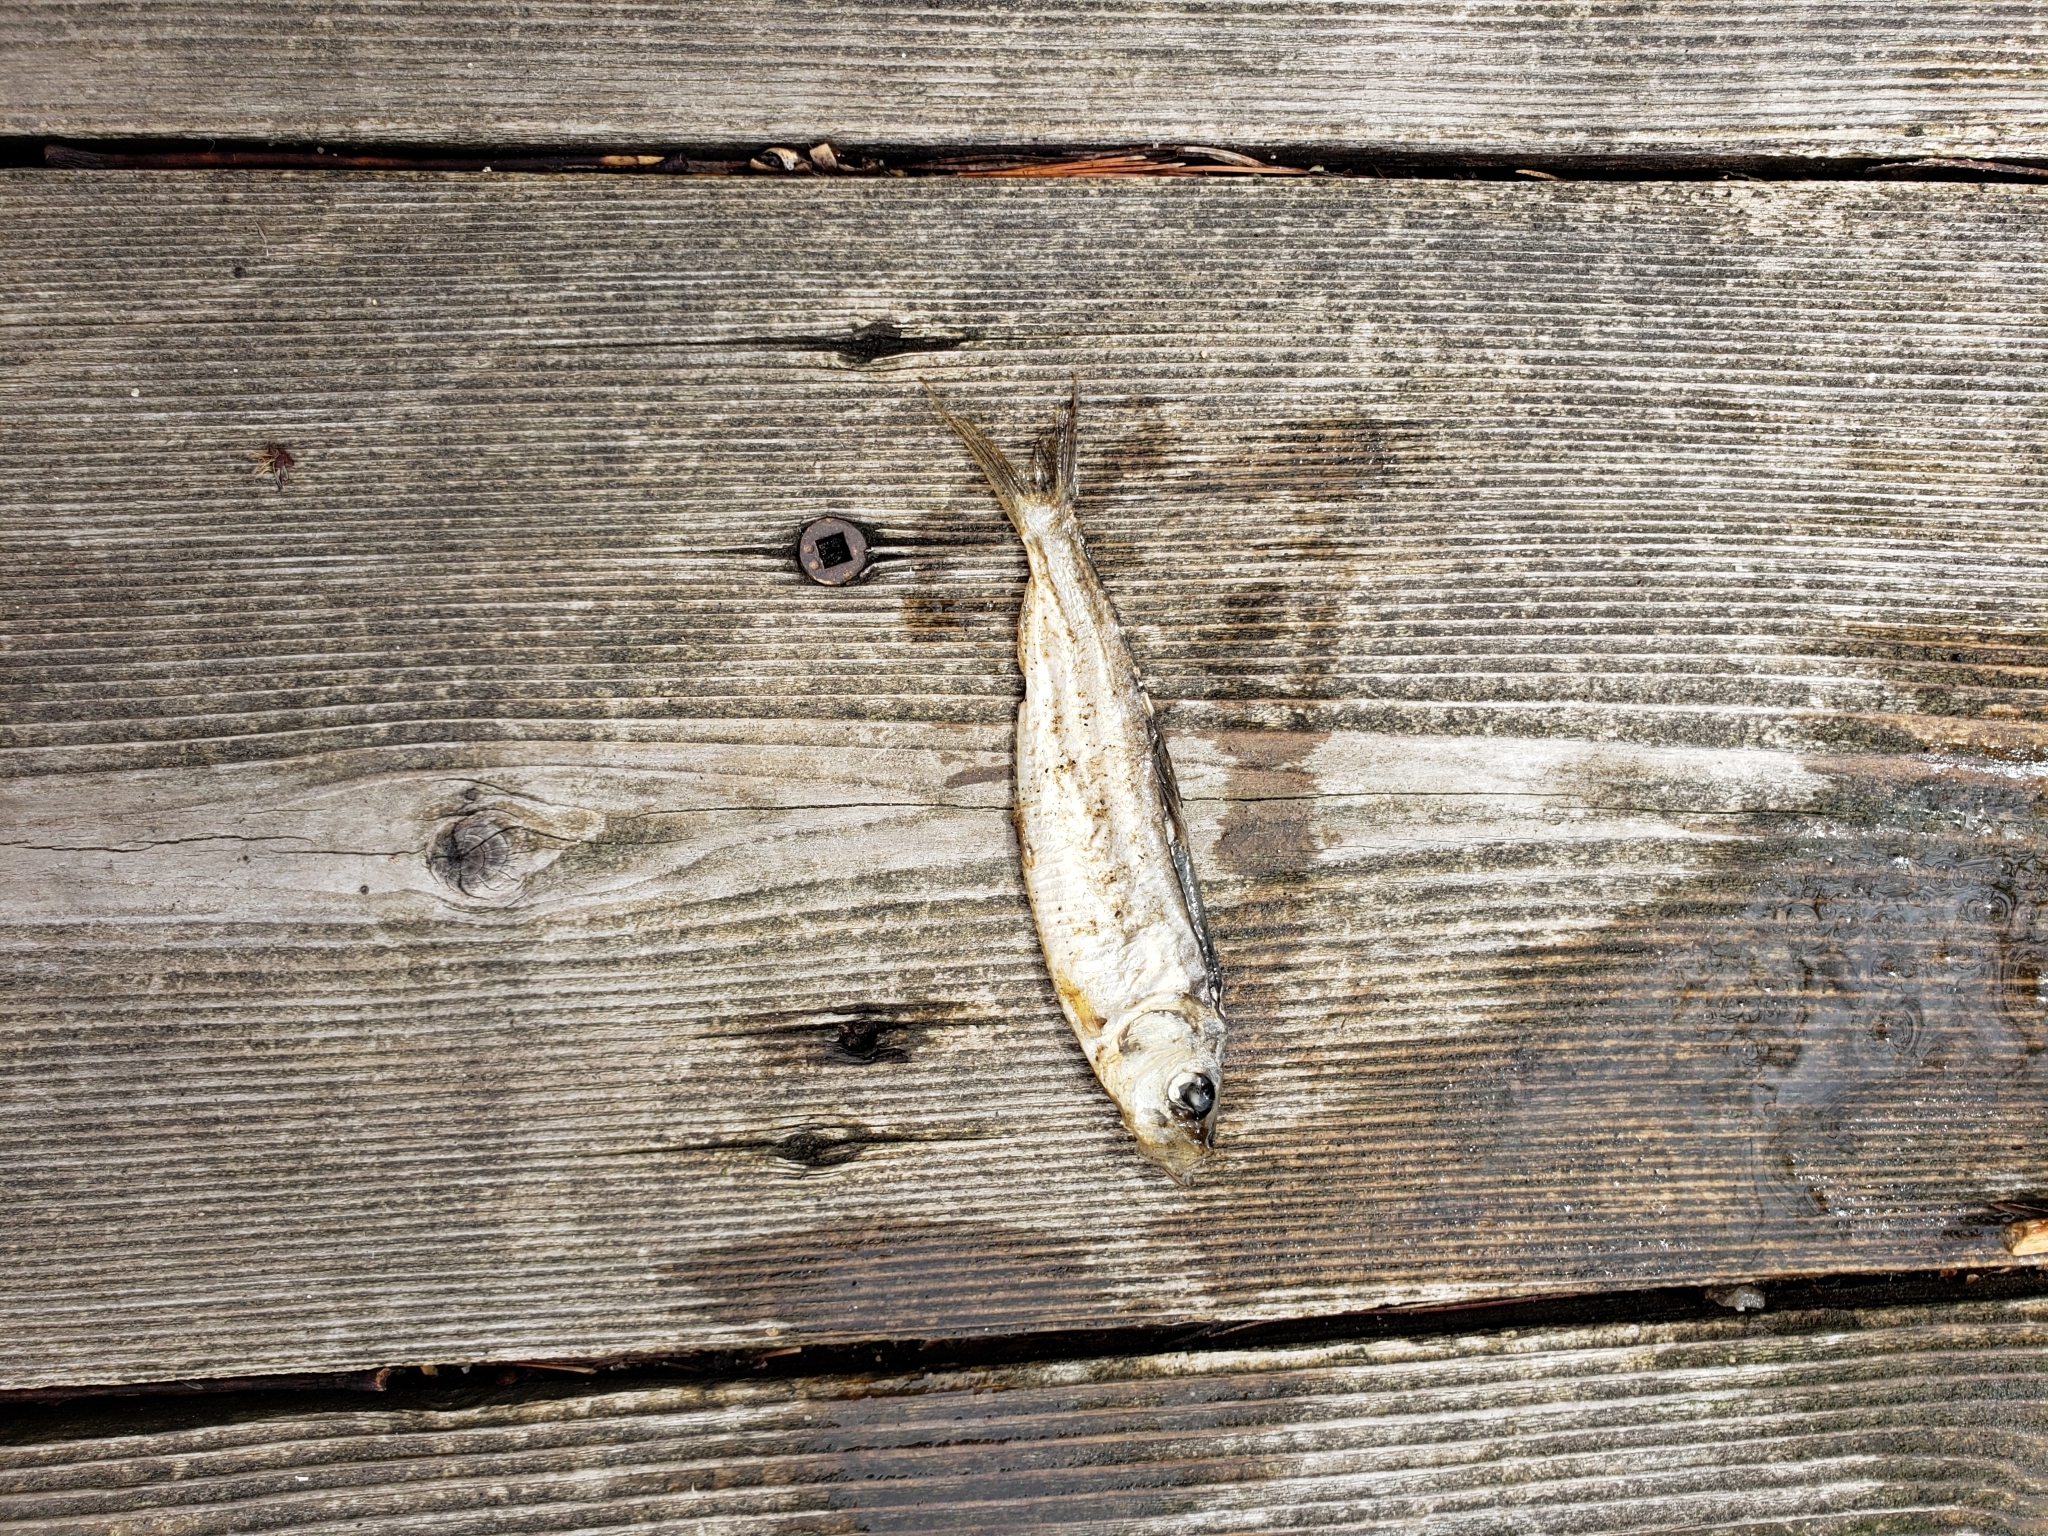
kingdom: Animalia
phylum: Chordata
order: Clupeiformes
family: Clupeidae
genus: Alosa
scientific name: Alosa pseudoharengus
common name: Alewife
